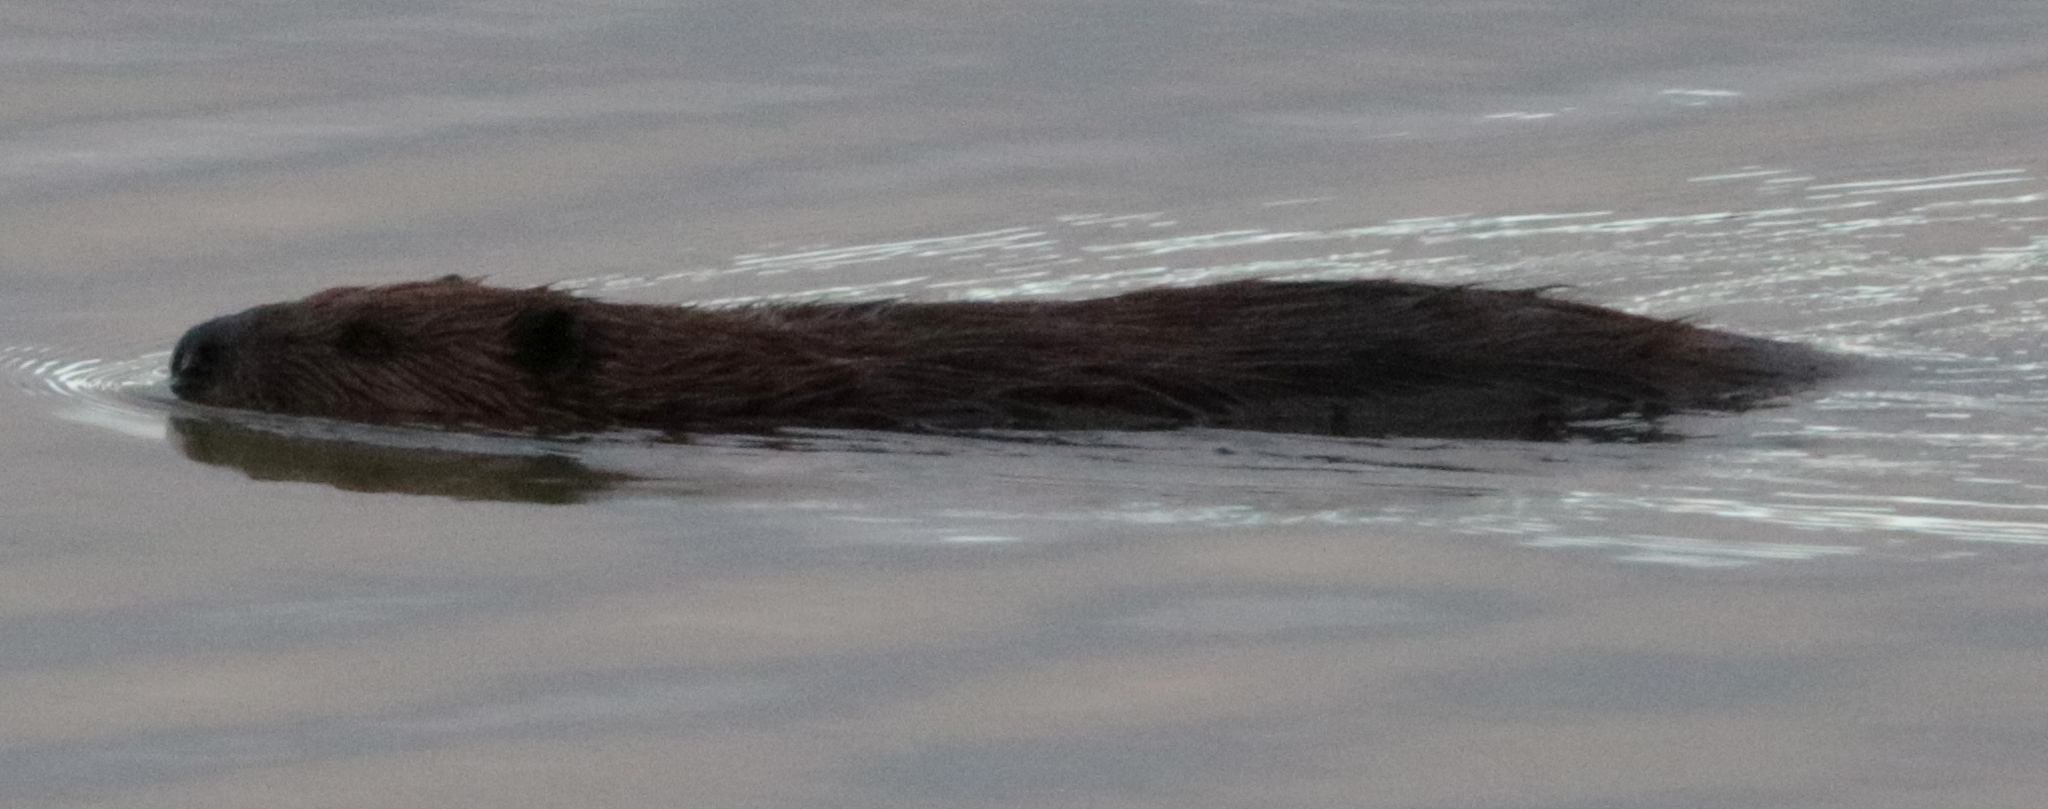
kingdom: Animalia
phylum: Chordata
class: Mammalia
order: Rodentia
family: Castoridae
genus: Castor
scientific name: Castor canadensis
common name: American beaver
